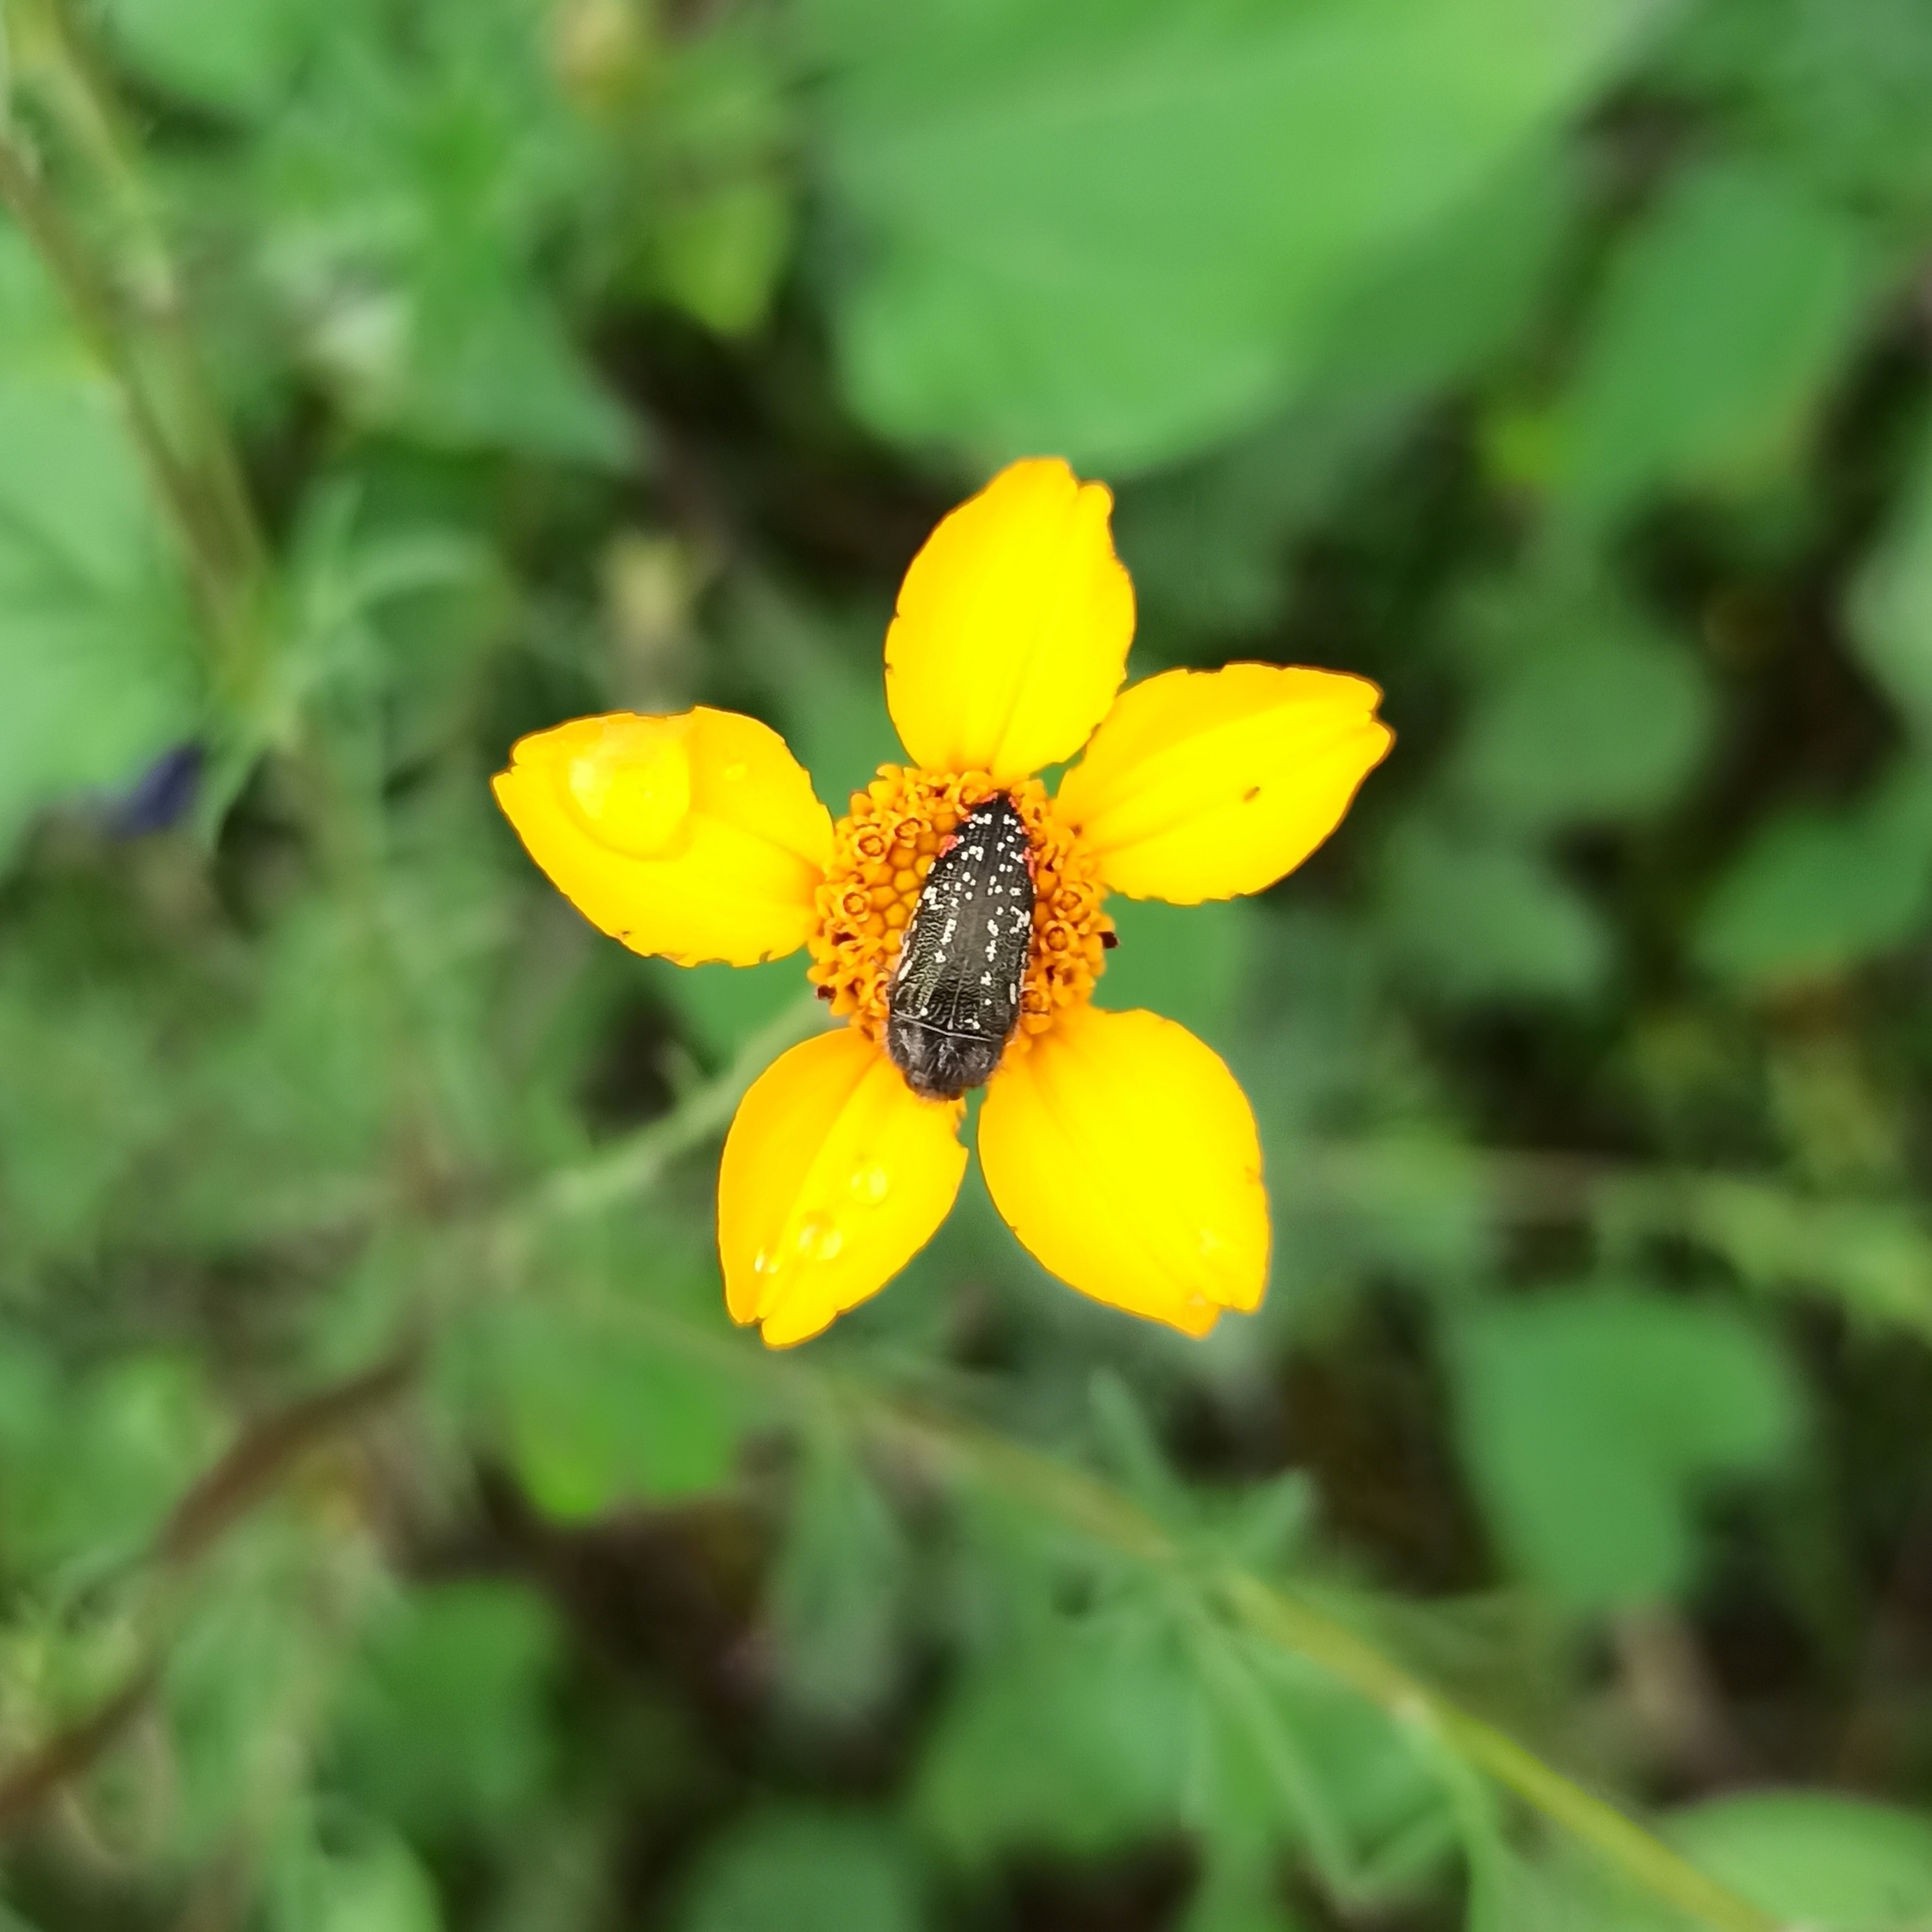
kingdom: Animalia
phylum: Arthropoda
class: Insecta
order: Coleoptera
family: Buprestidae
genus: Acmaeodera
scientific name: Acmaeodera mudgei
